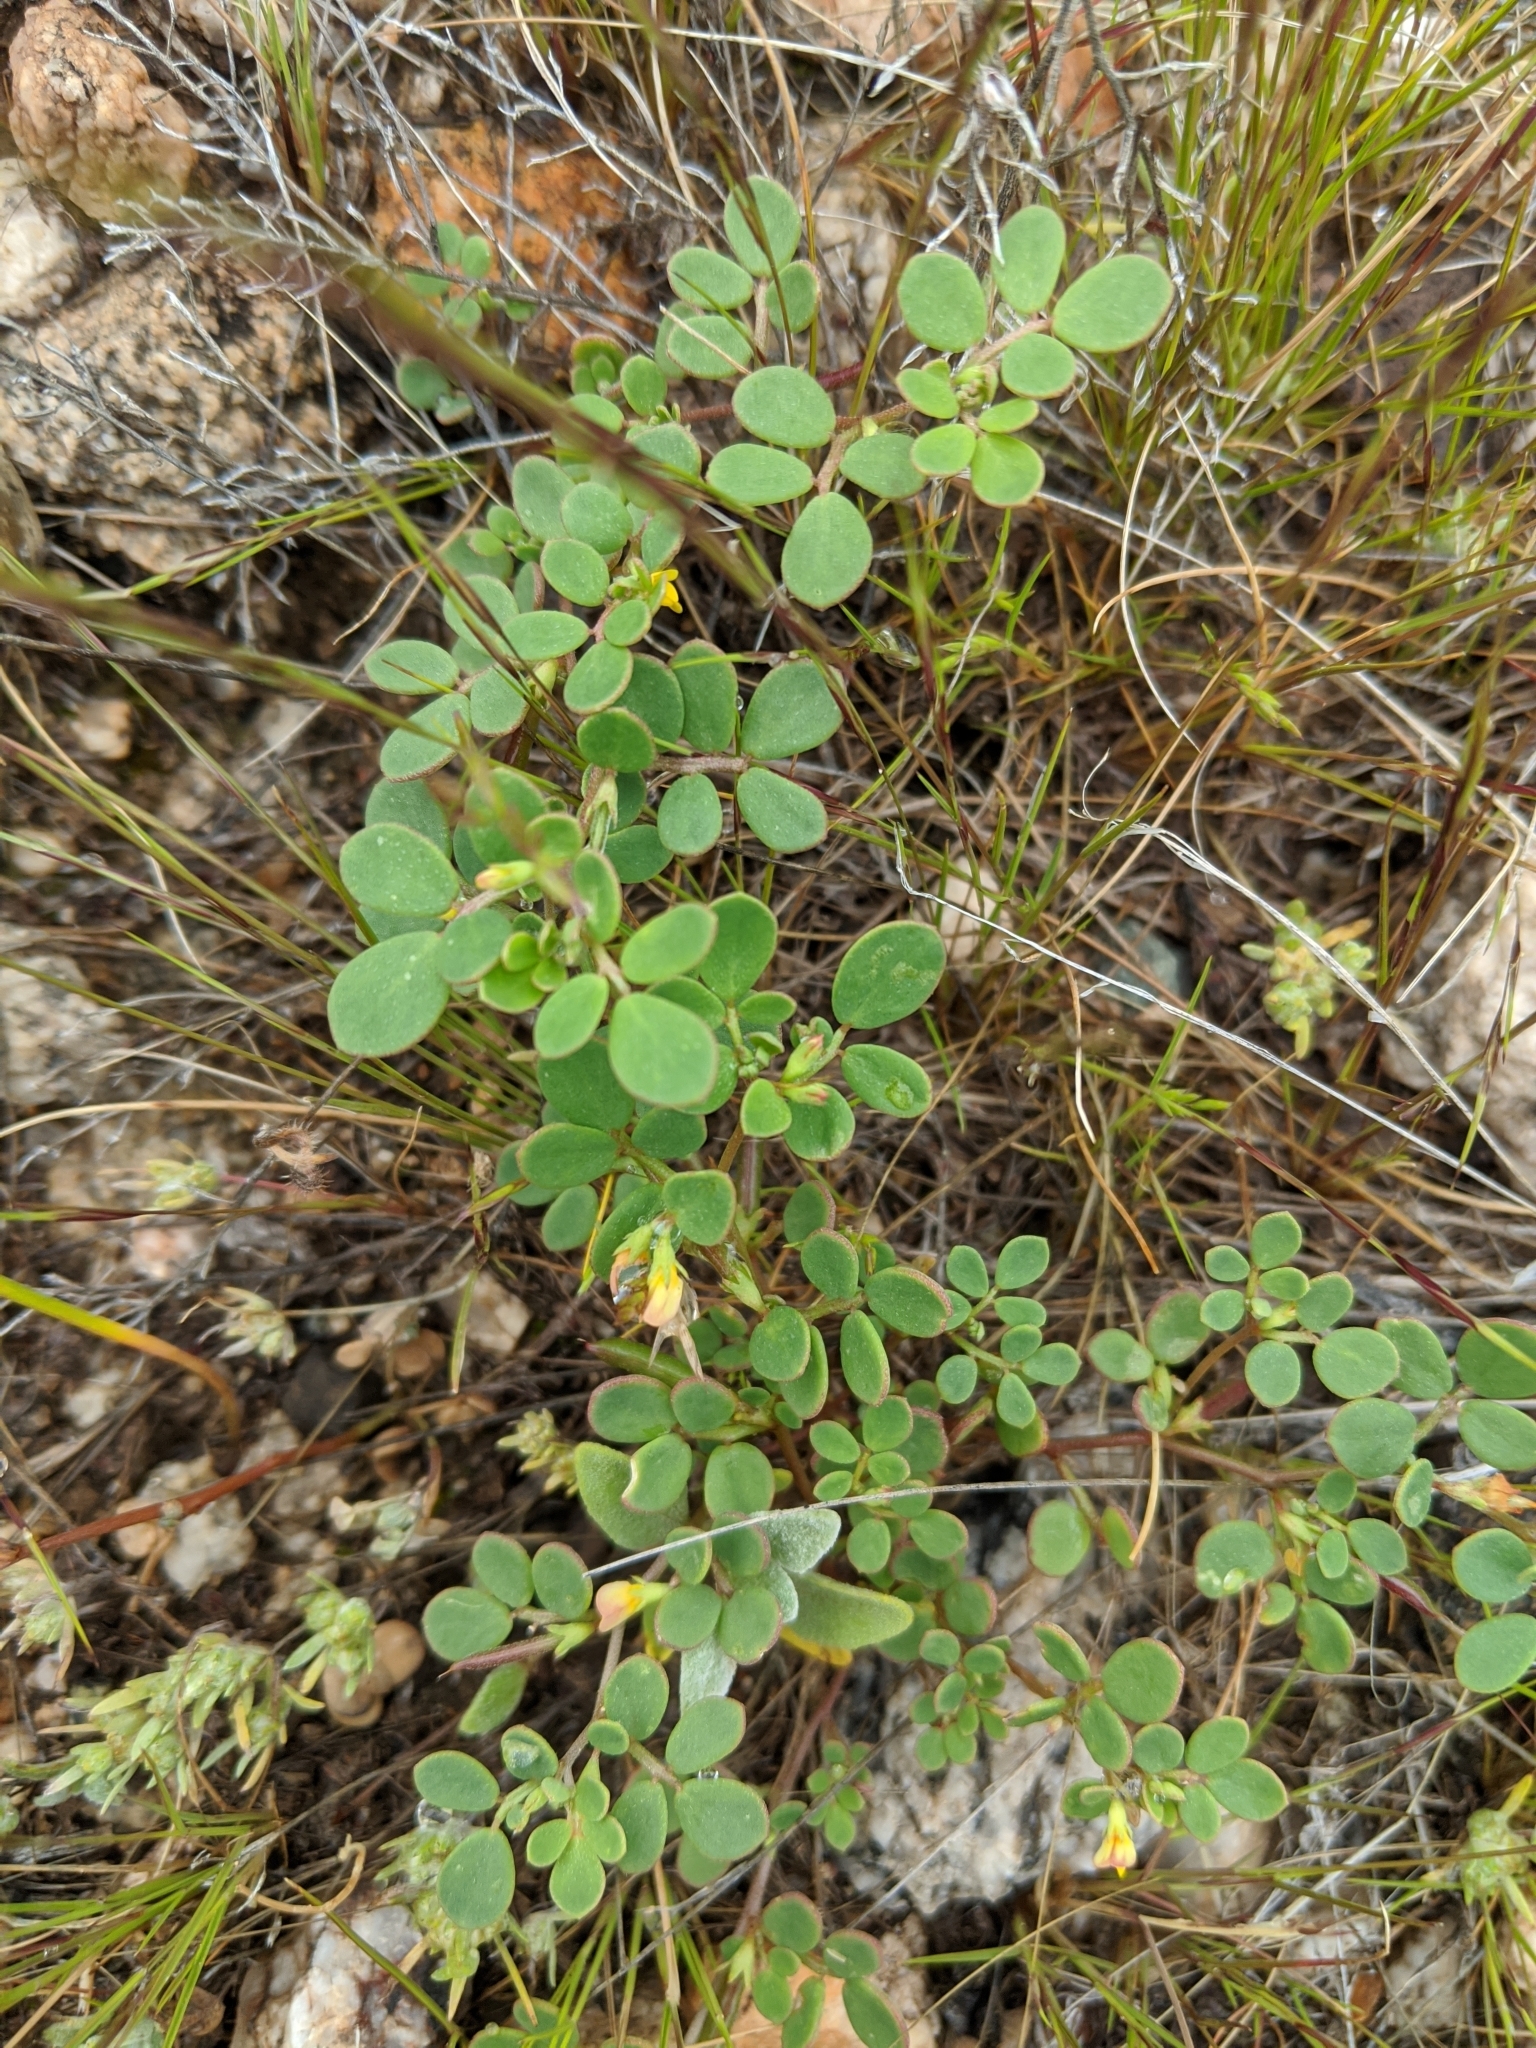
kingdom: Plantae
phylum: Tracheophyta
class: Magnoliopsida
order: Fabales
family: Fabaceae
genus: Acmispon
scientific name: Acmispon maritimus
